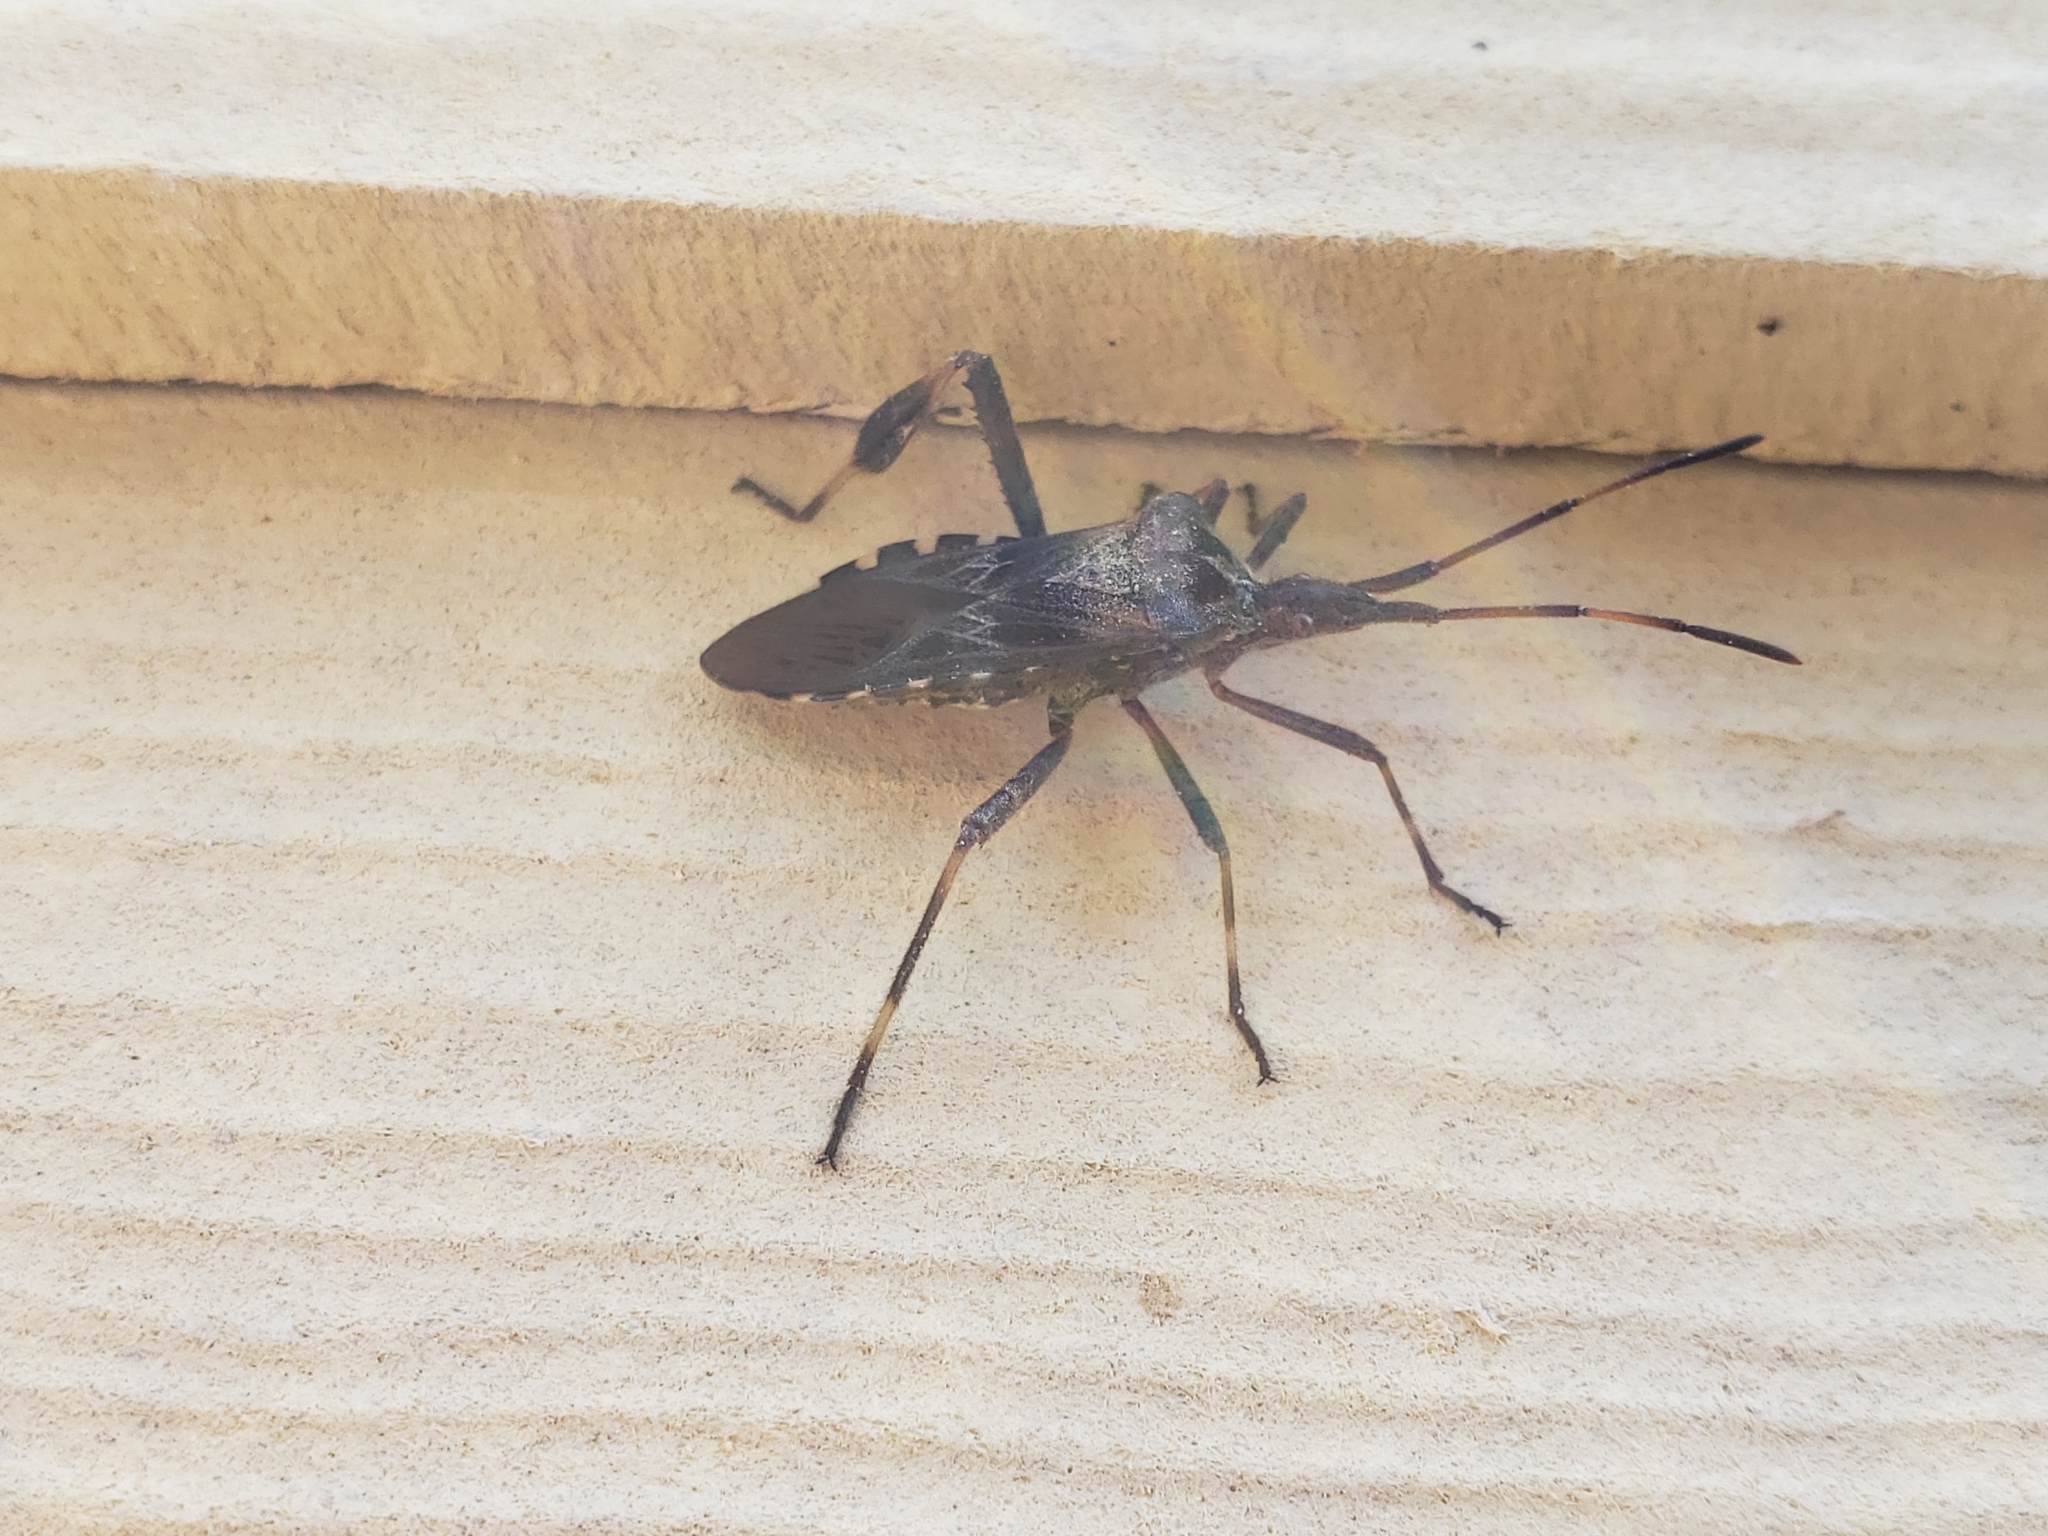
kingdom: Animalia
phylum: Arthropoda
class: Insecta
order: Hemiptera
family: Coreidae
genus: Leptoglossus
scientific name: Leptoglossus occidentalis
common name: Western conifer-seed bug
